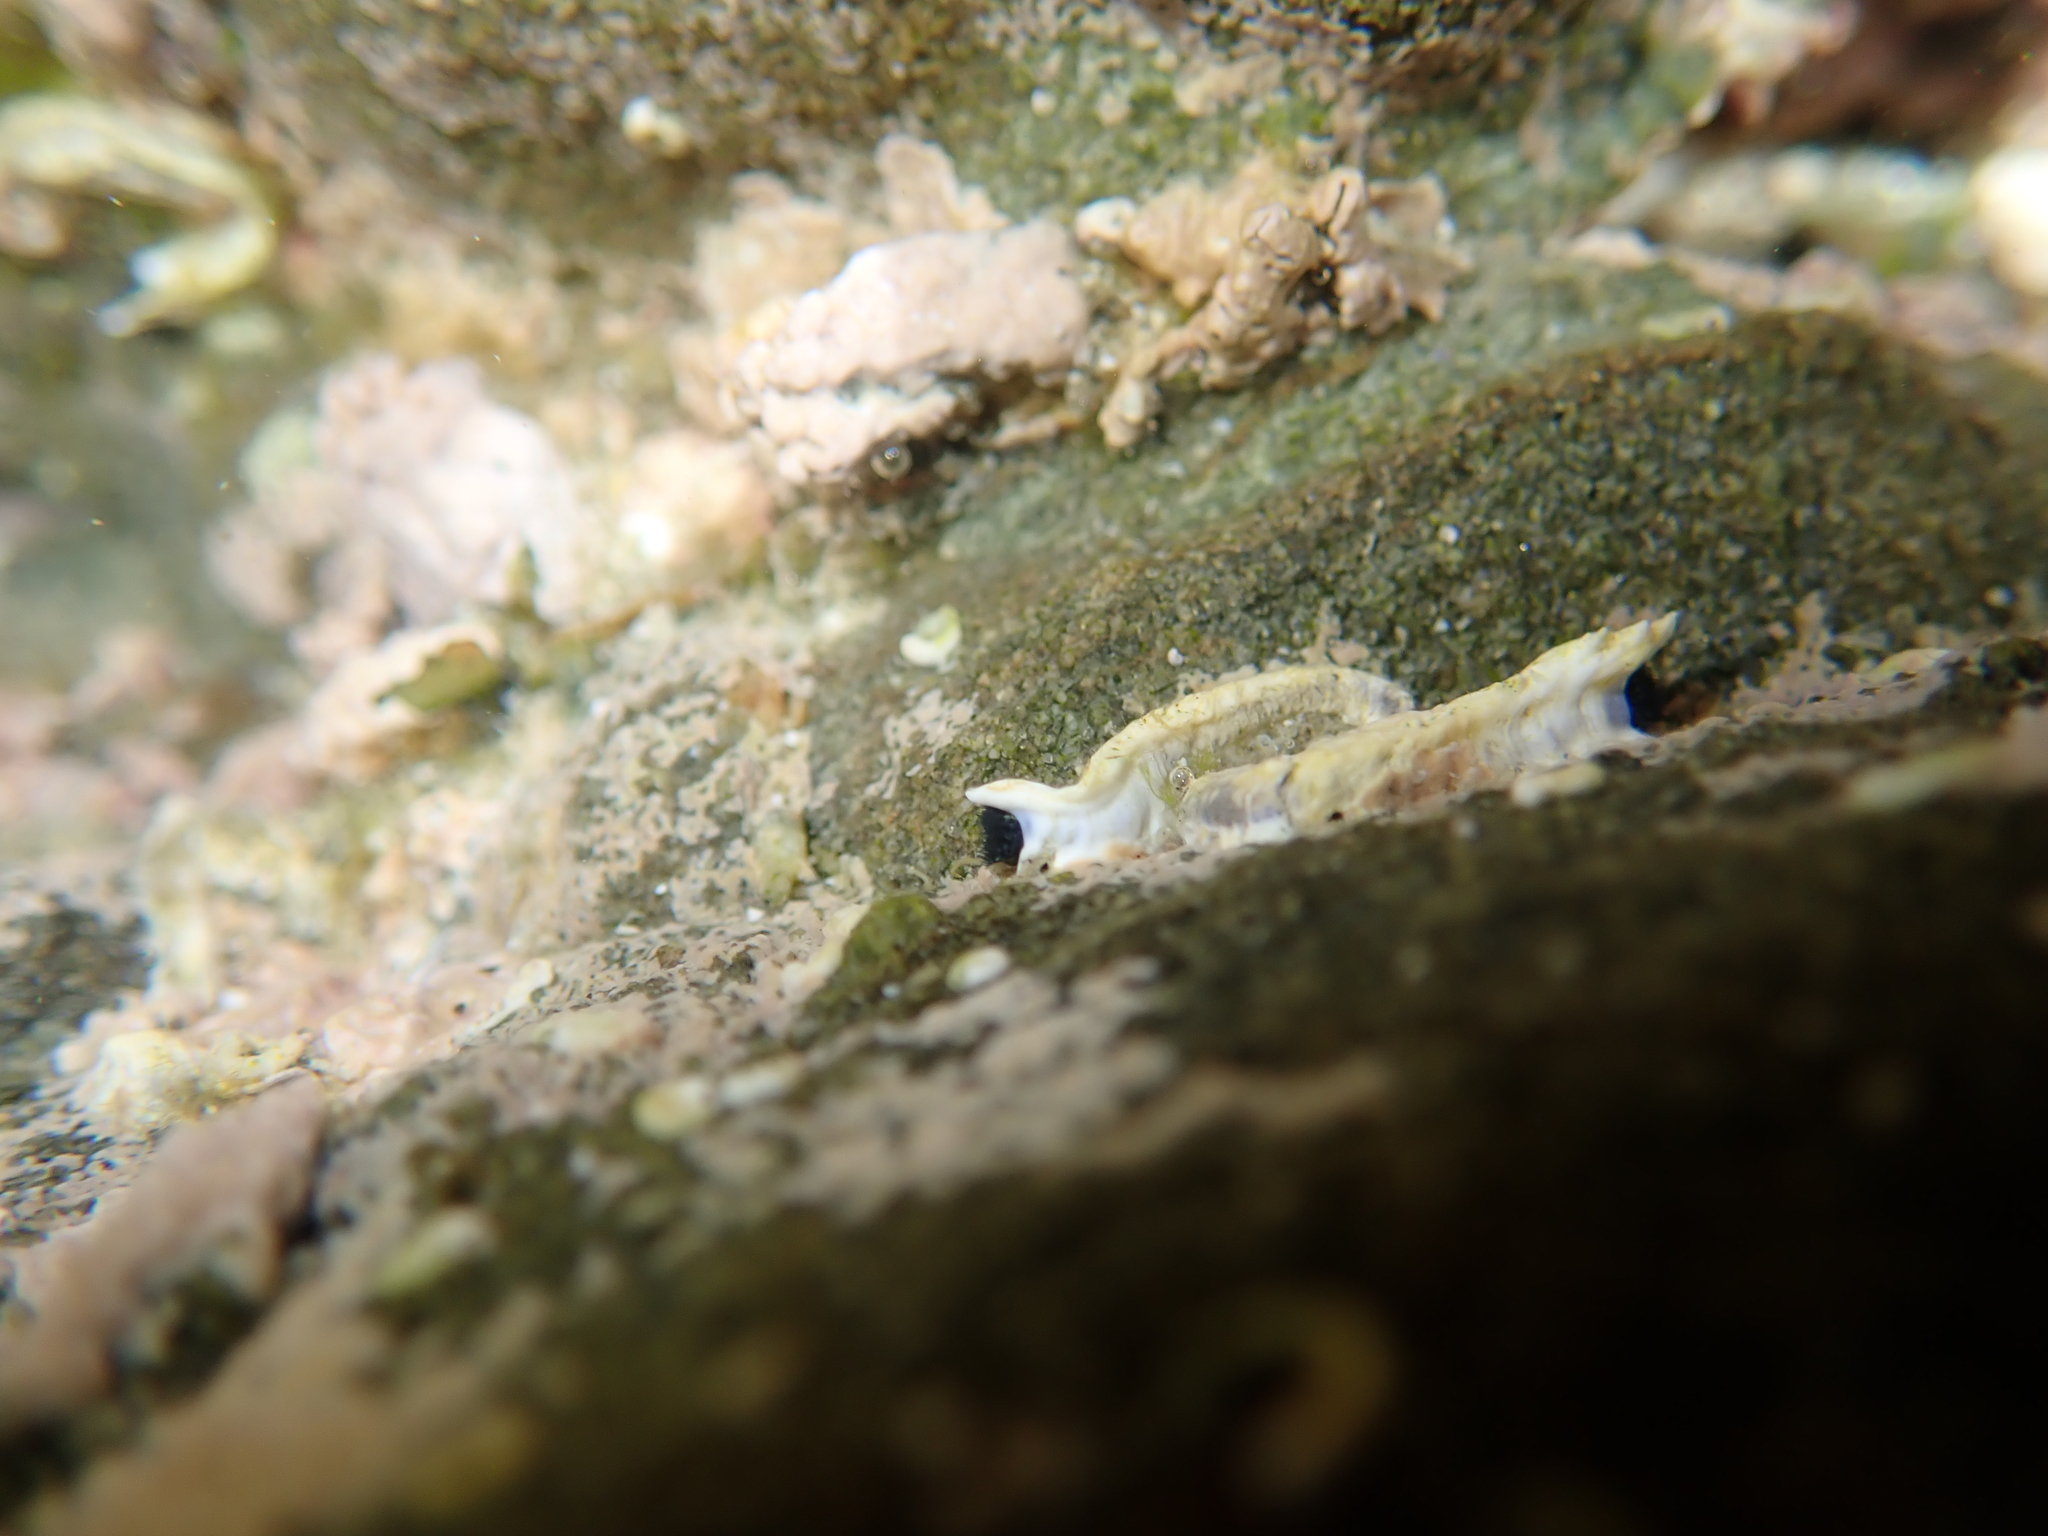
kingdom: Animalia
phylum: Annelida
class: Polychaeta
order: Sabellida
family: Serpulidae
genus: Spirobranchus
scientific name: Spirobranchus cariniferus
